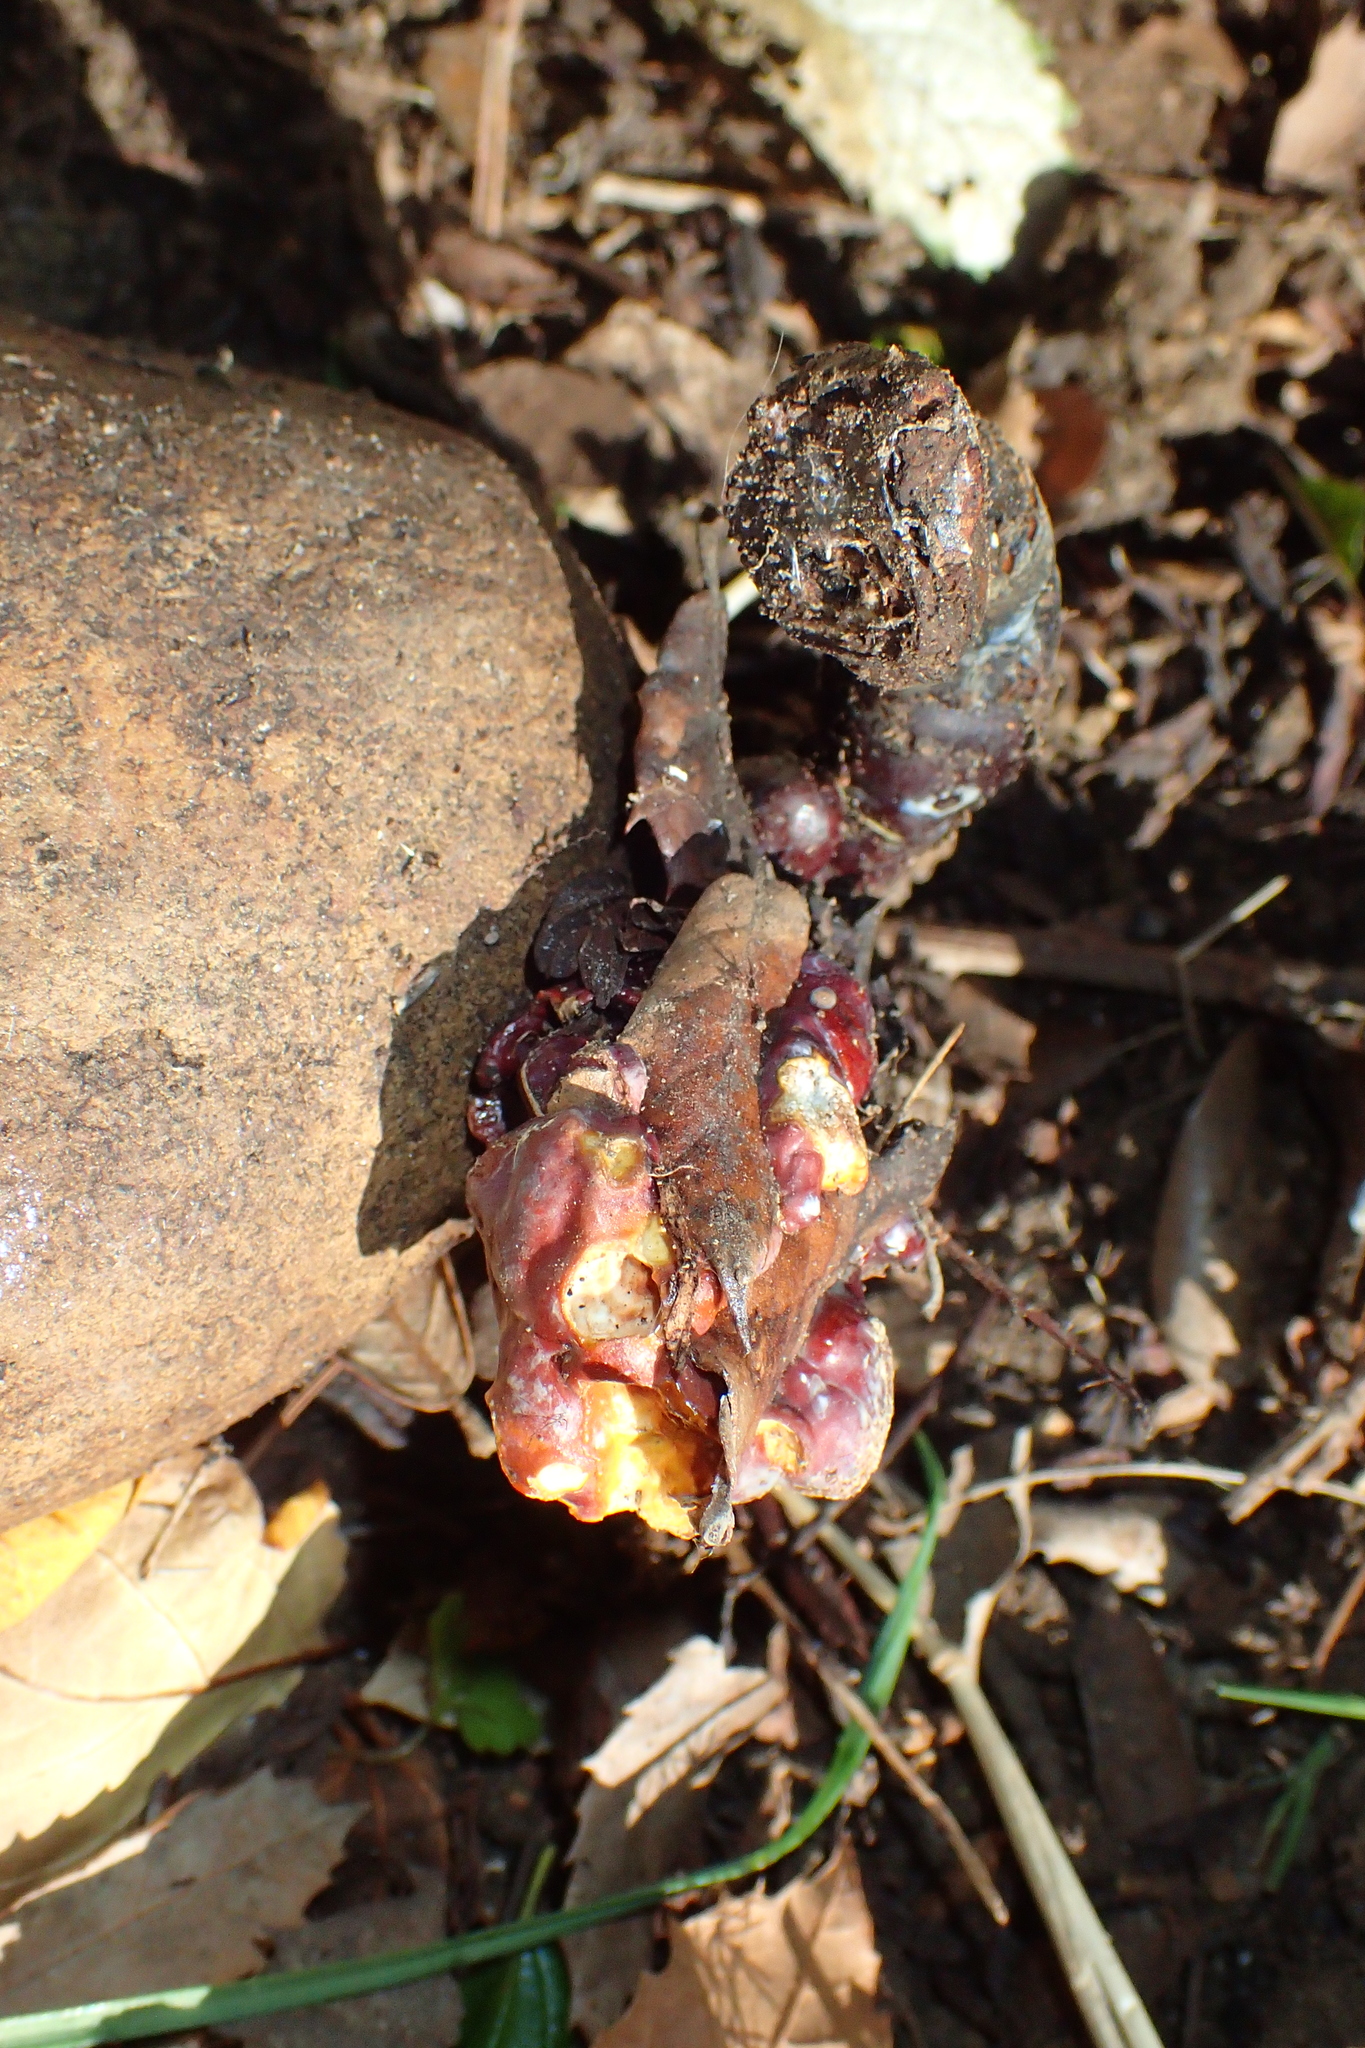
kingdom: Fungi
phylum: Basidiomycota
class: Agaricomycetes
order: Polyporales
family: Polyporaceae
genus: Ganoderma
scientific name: Ganoderma lucidum
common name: Lacquered bracket
